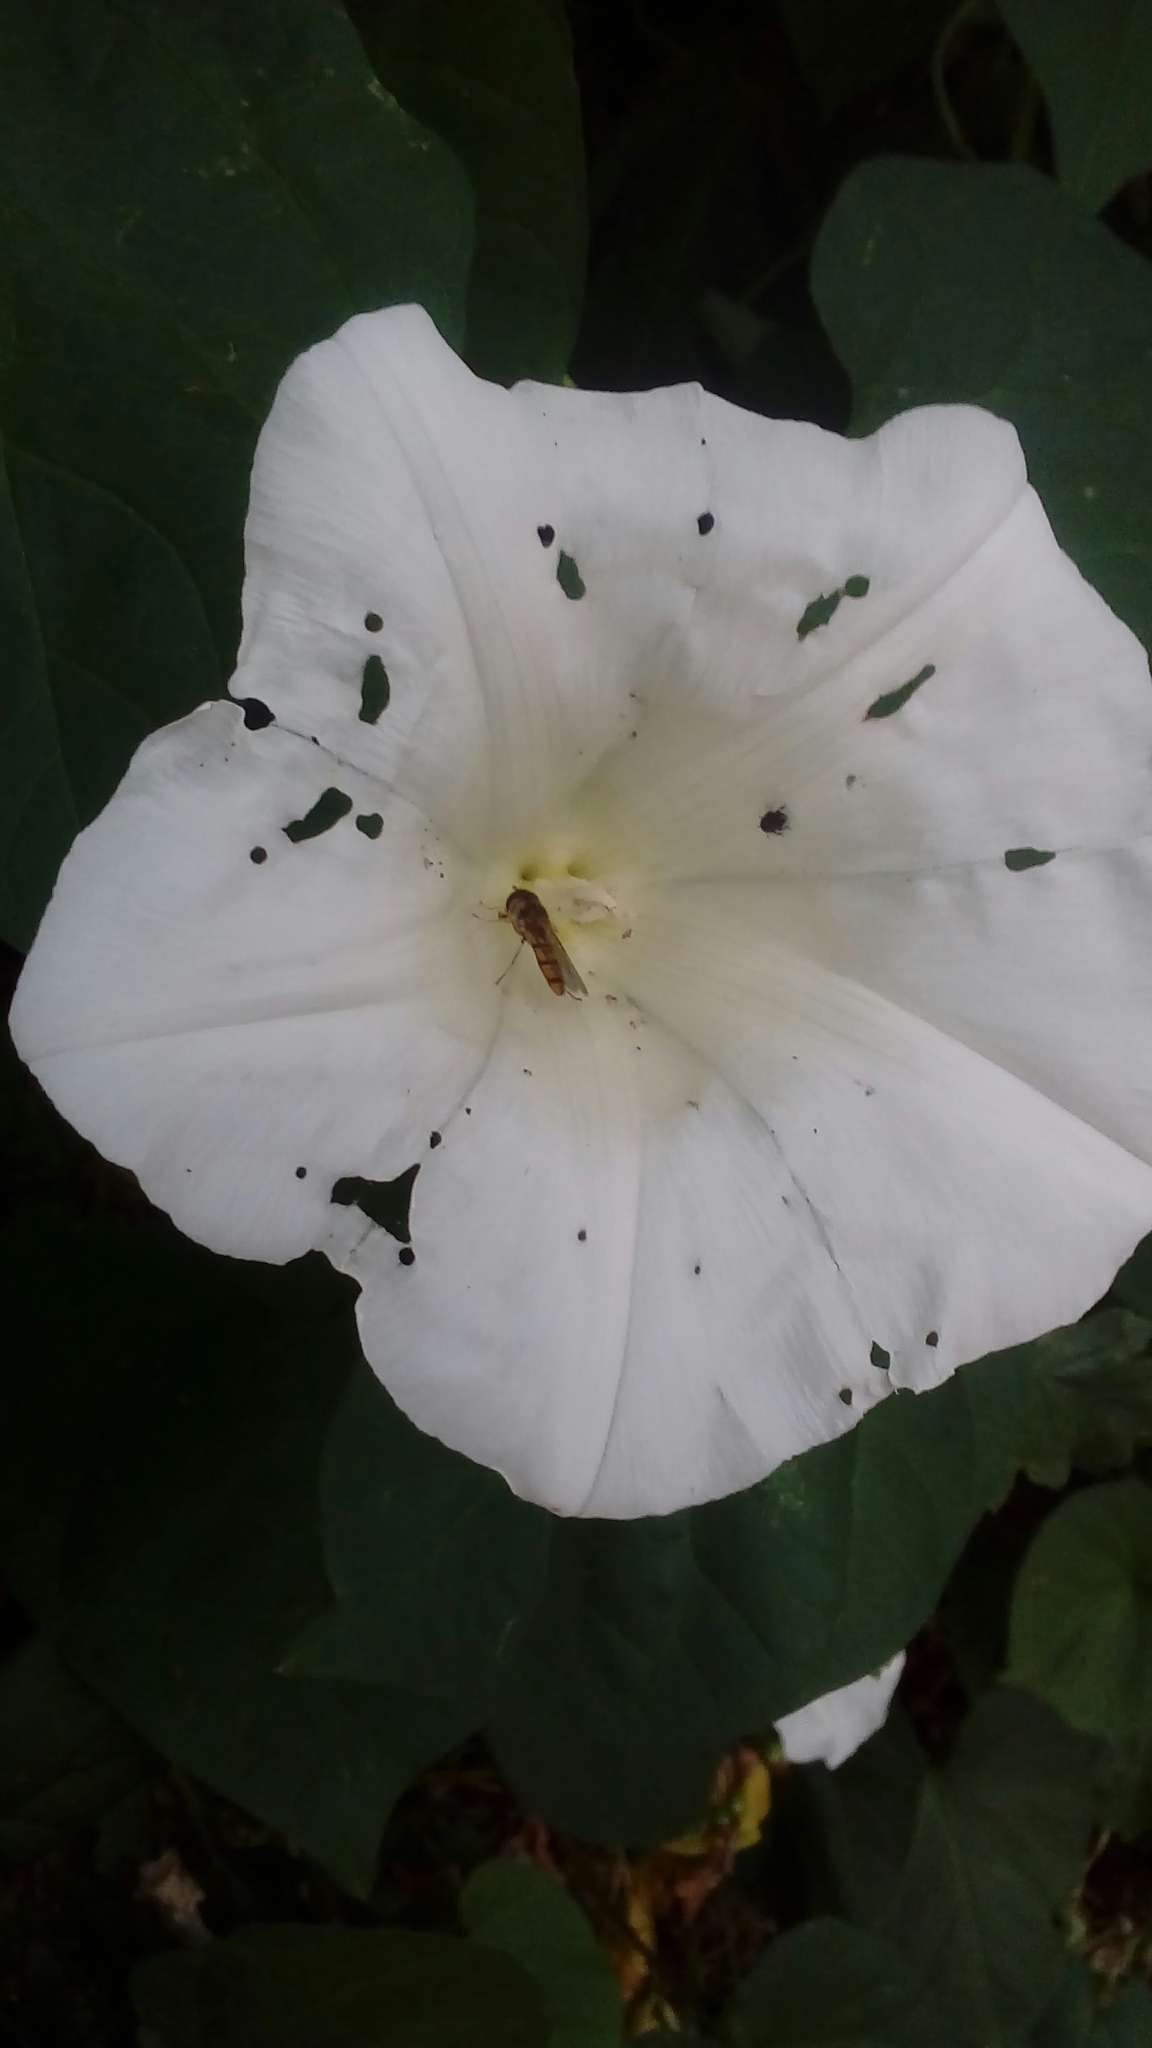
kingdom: Animalia
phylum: Arthropoda
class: Insecta
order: Diptera
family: Syrphidae
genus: Episyrphus
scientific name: Episyrphus balteatus
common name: Marmalade hoverfly
